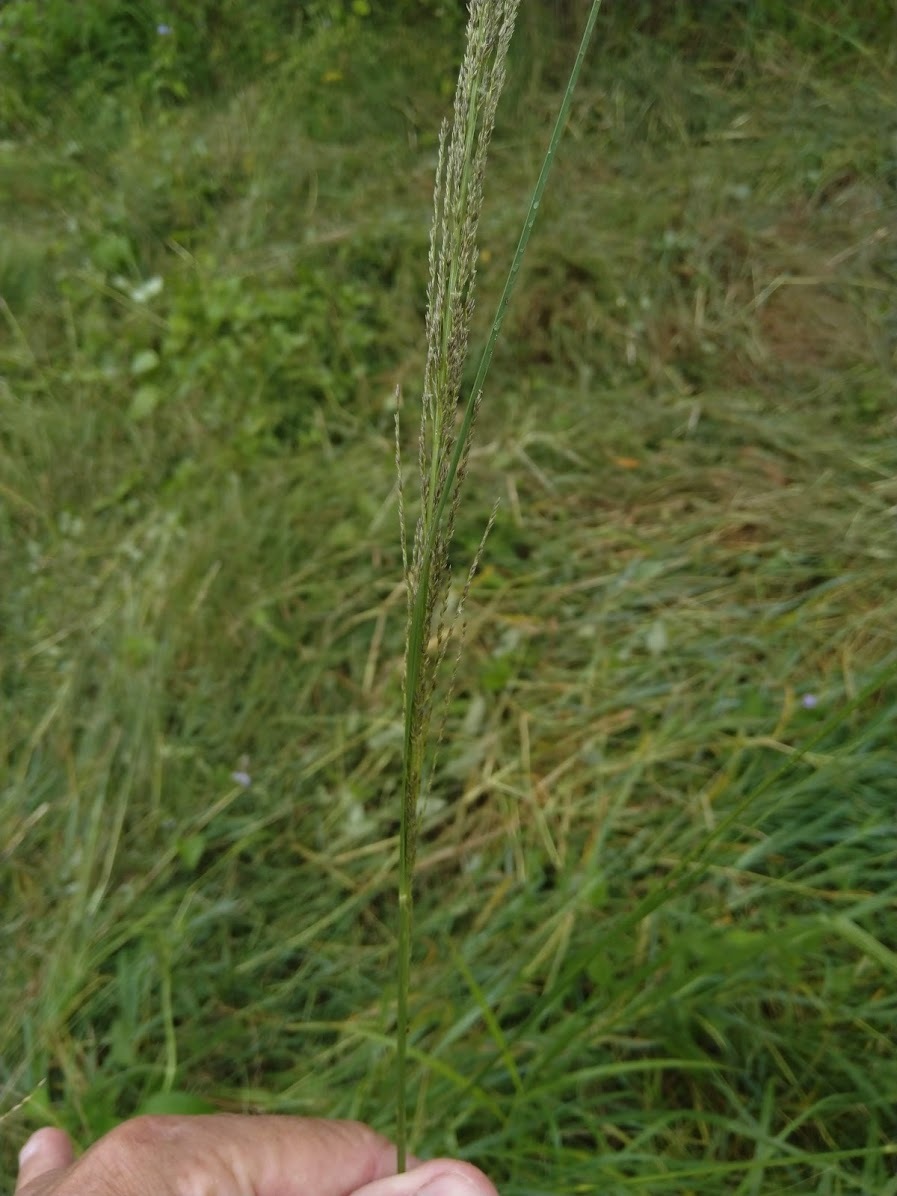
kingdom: Plantae
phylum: Tracheophyta
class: Liliopsida
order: Poales
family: Poaceae
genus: Sporobolus
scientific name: Sporobolus natalensis
